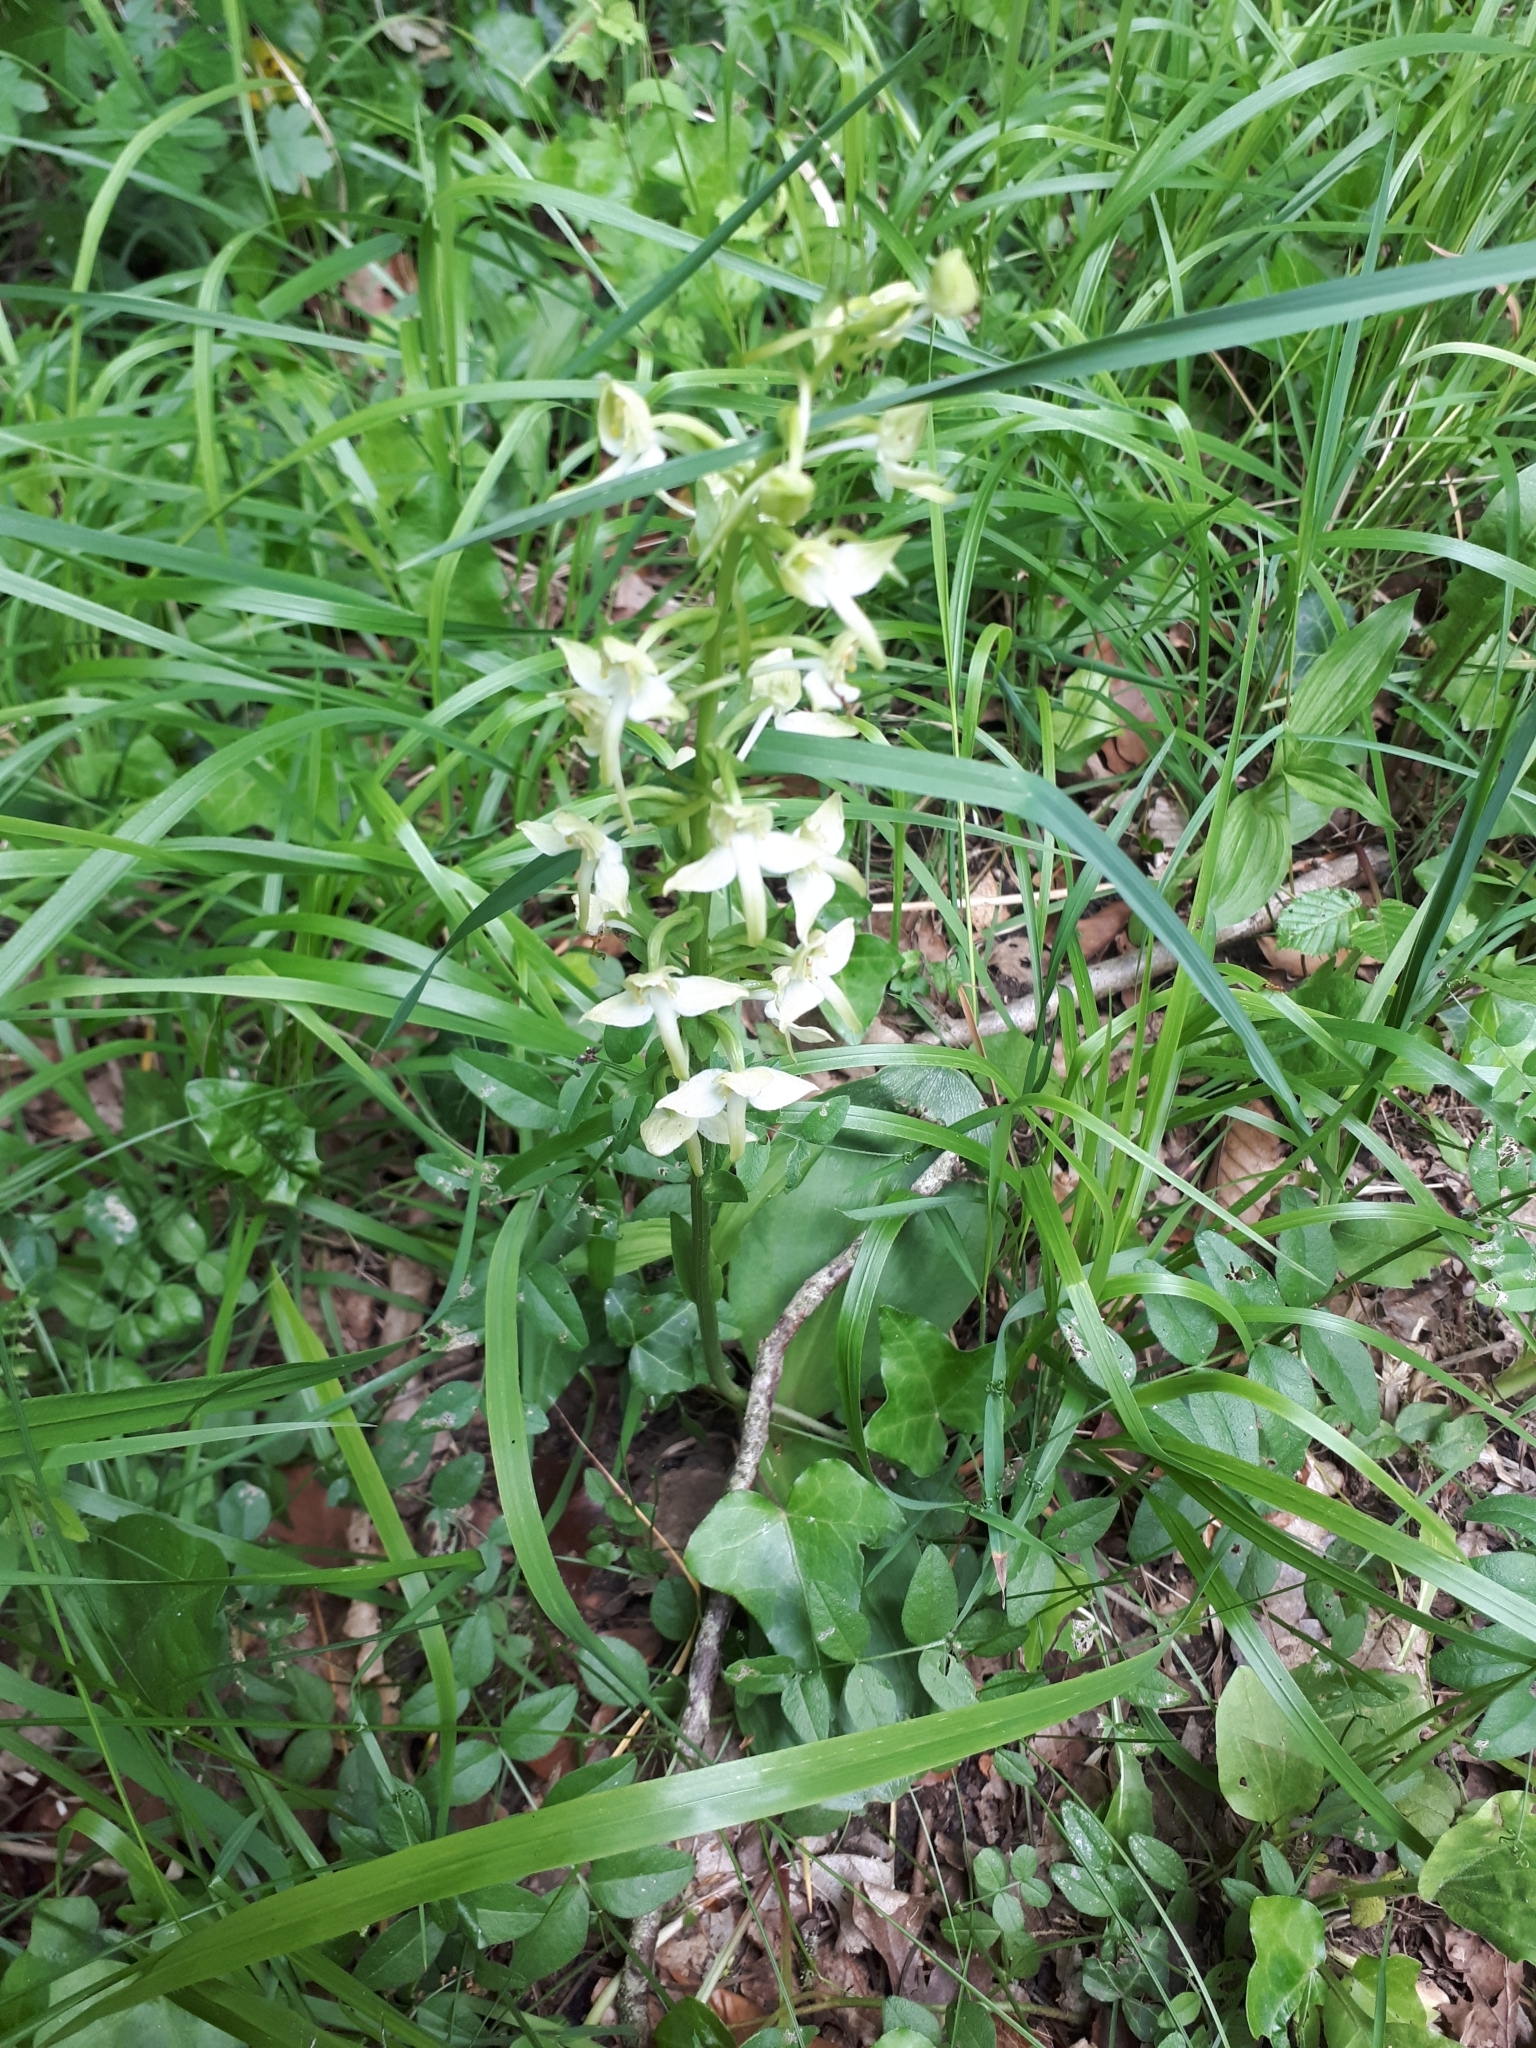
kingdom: Plantae
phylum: Tracheophyta
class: Liliopsida
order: Asparagales
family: Orchidaceae
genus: Platanthera
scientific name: Platanthera chlorantha
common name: Greater butterfly-orchid
